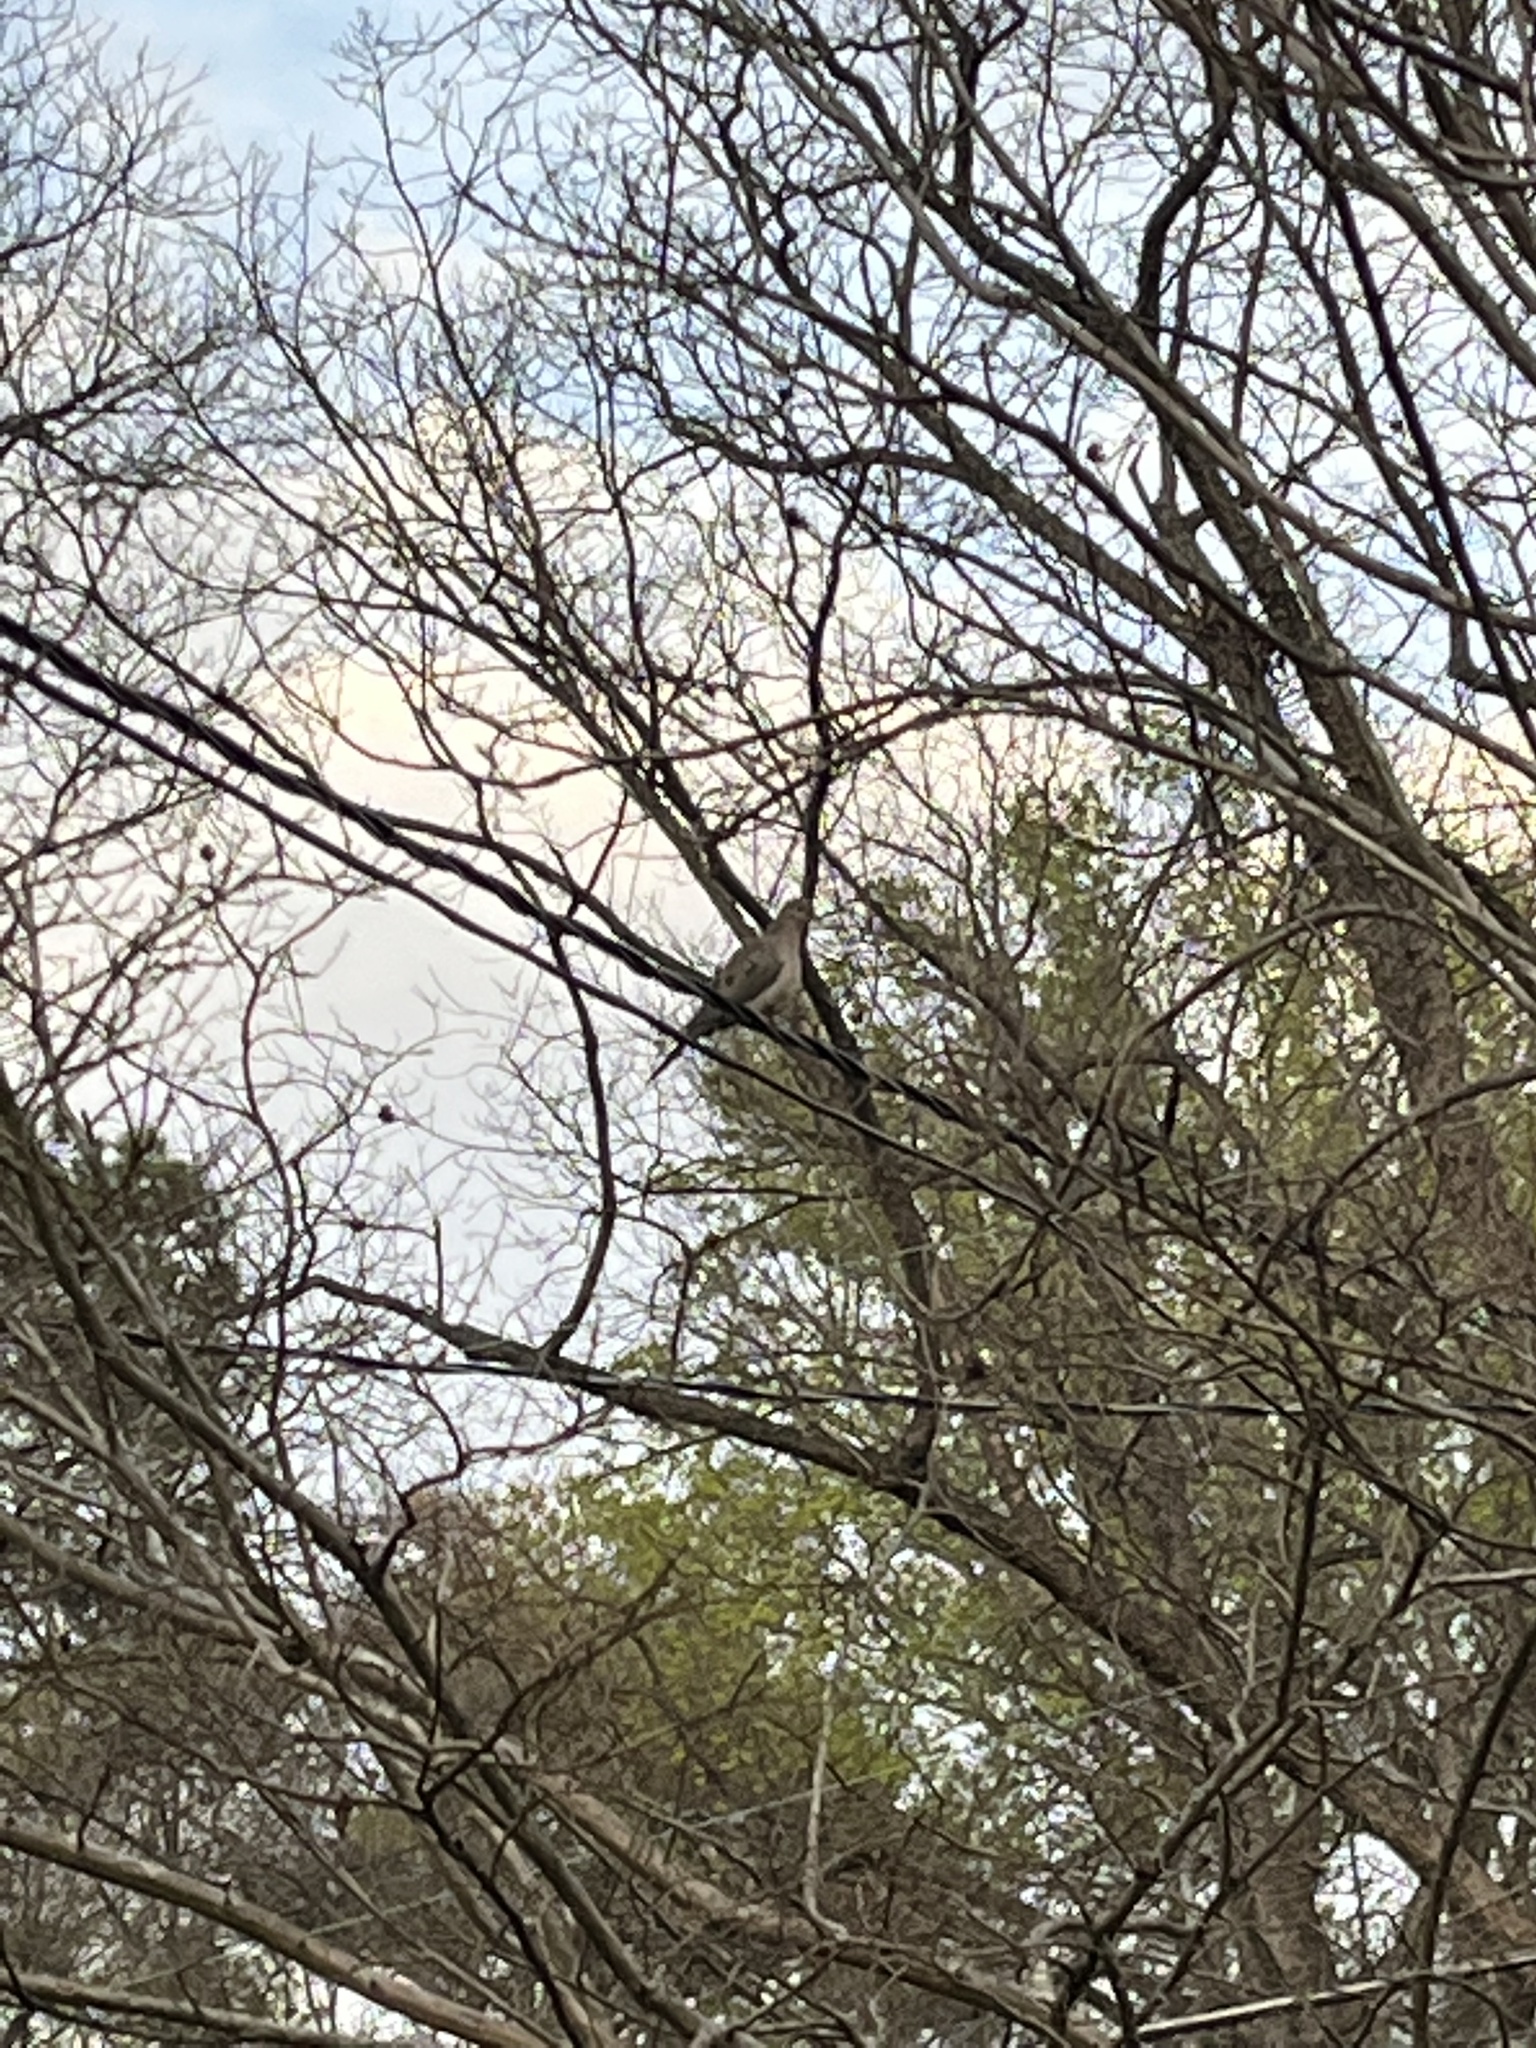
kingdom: Animalia
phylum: Chordata
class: Aves
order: Columbiformes
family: Columbidae
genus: Zenaida
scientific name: Zenaida macroura
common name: Mourning dove
